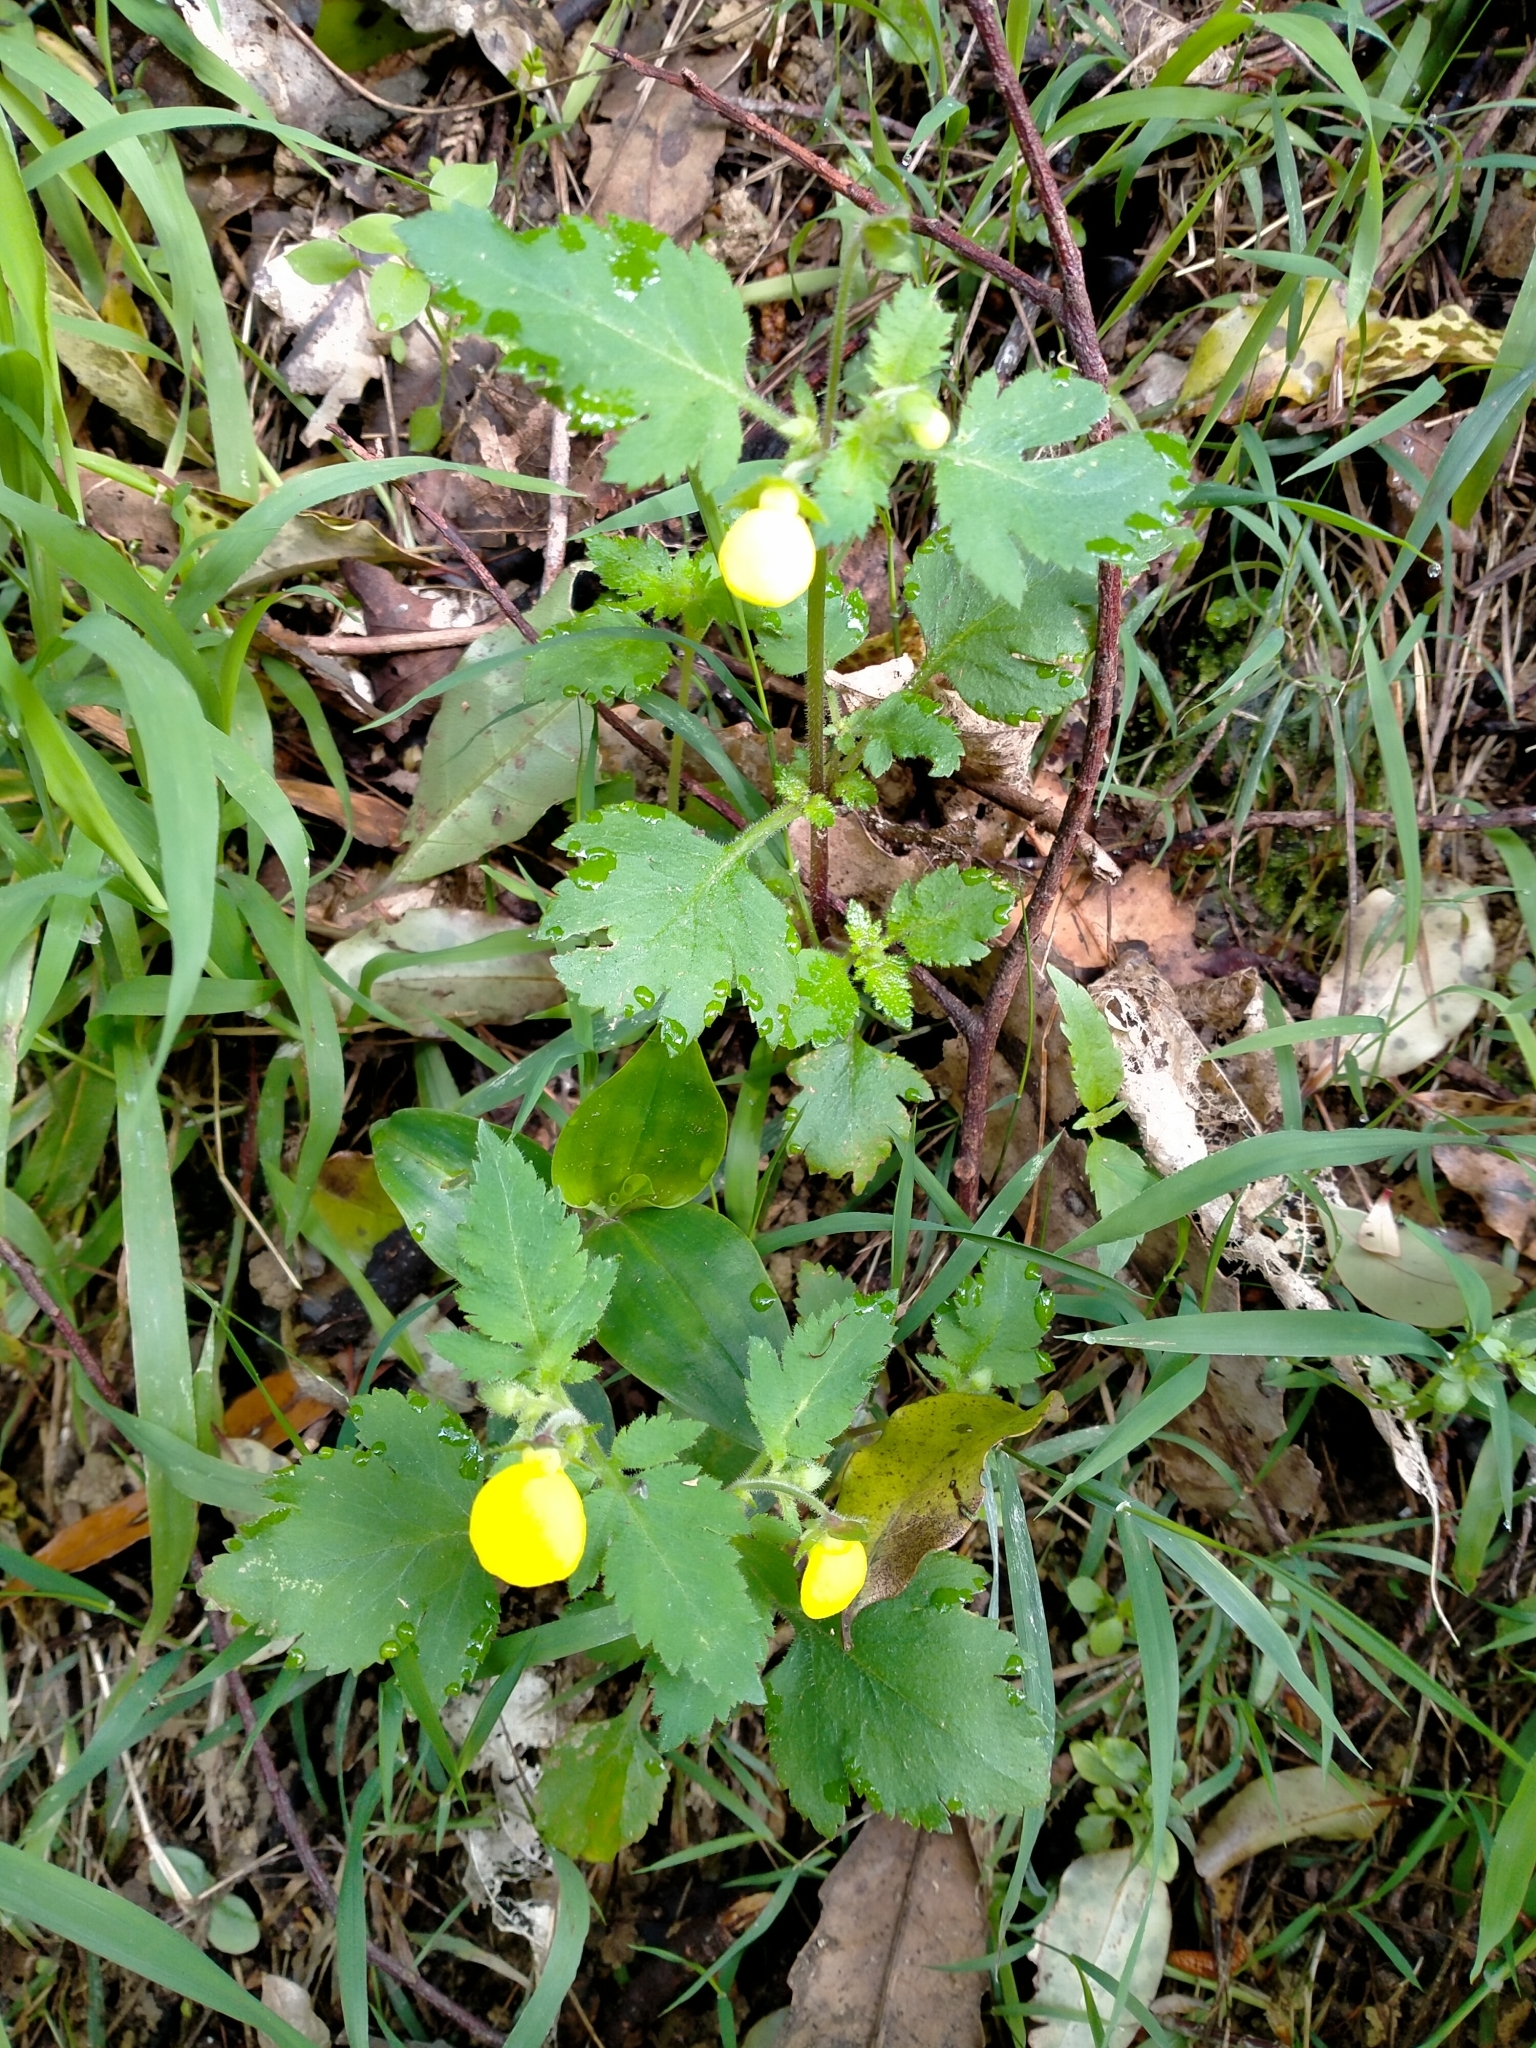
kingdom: Plantae
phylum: Tracheophyta
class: Magnoliopsida
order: Lamiales
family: Calceolariaceae
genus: Calceolaria
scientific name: Calceolaria tripartita
